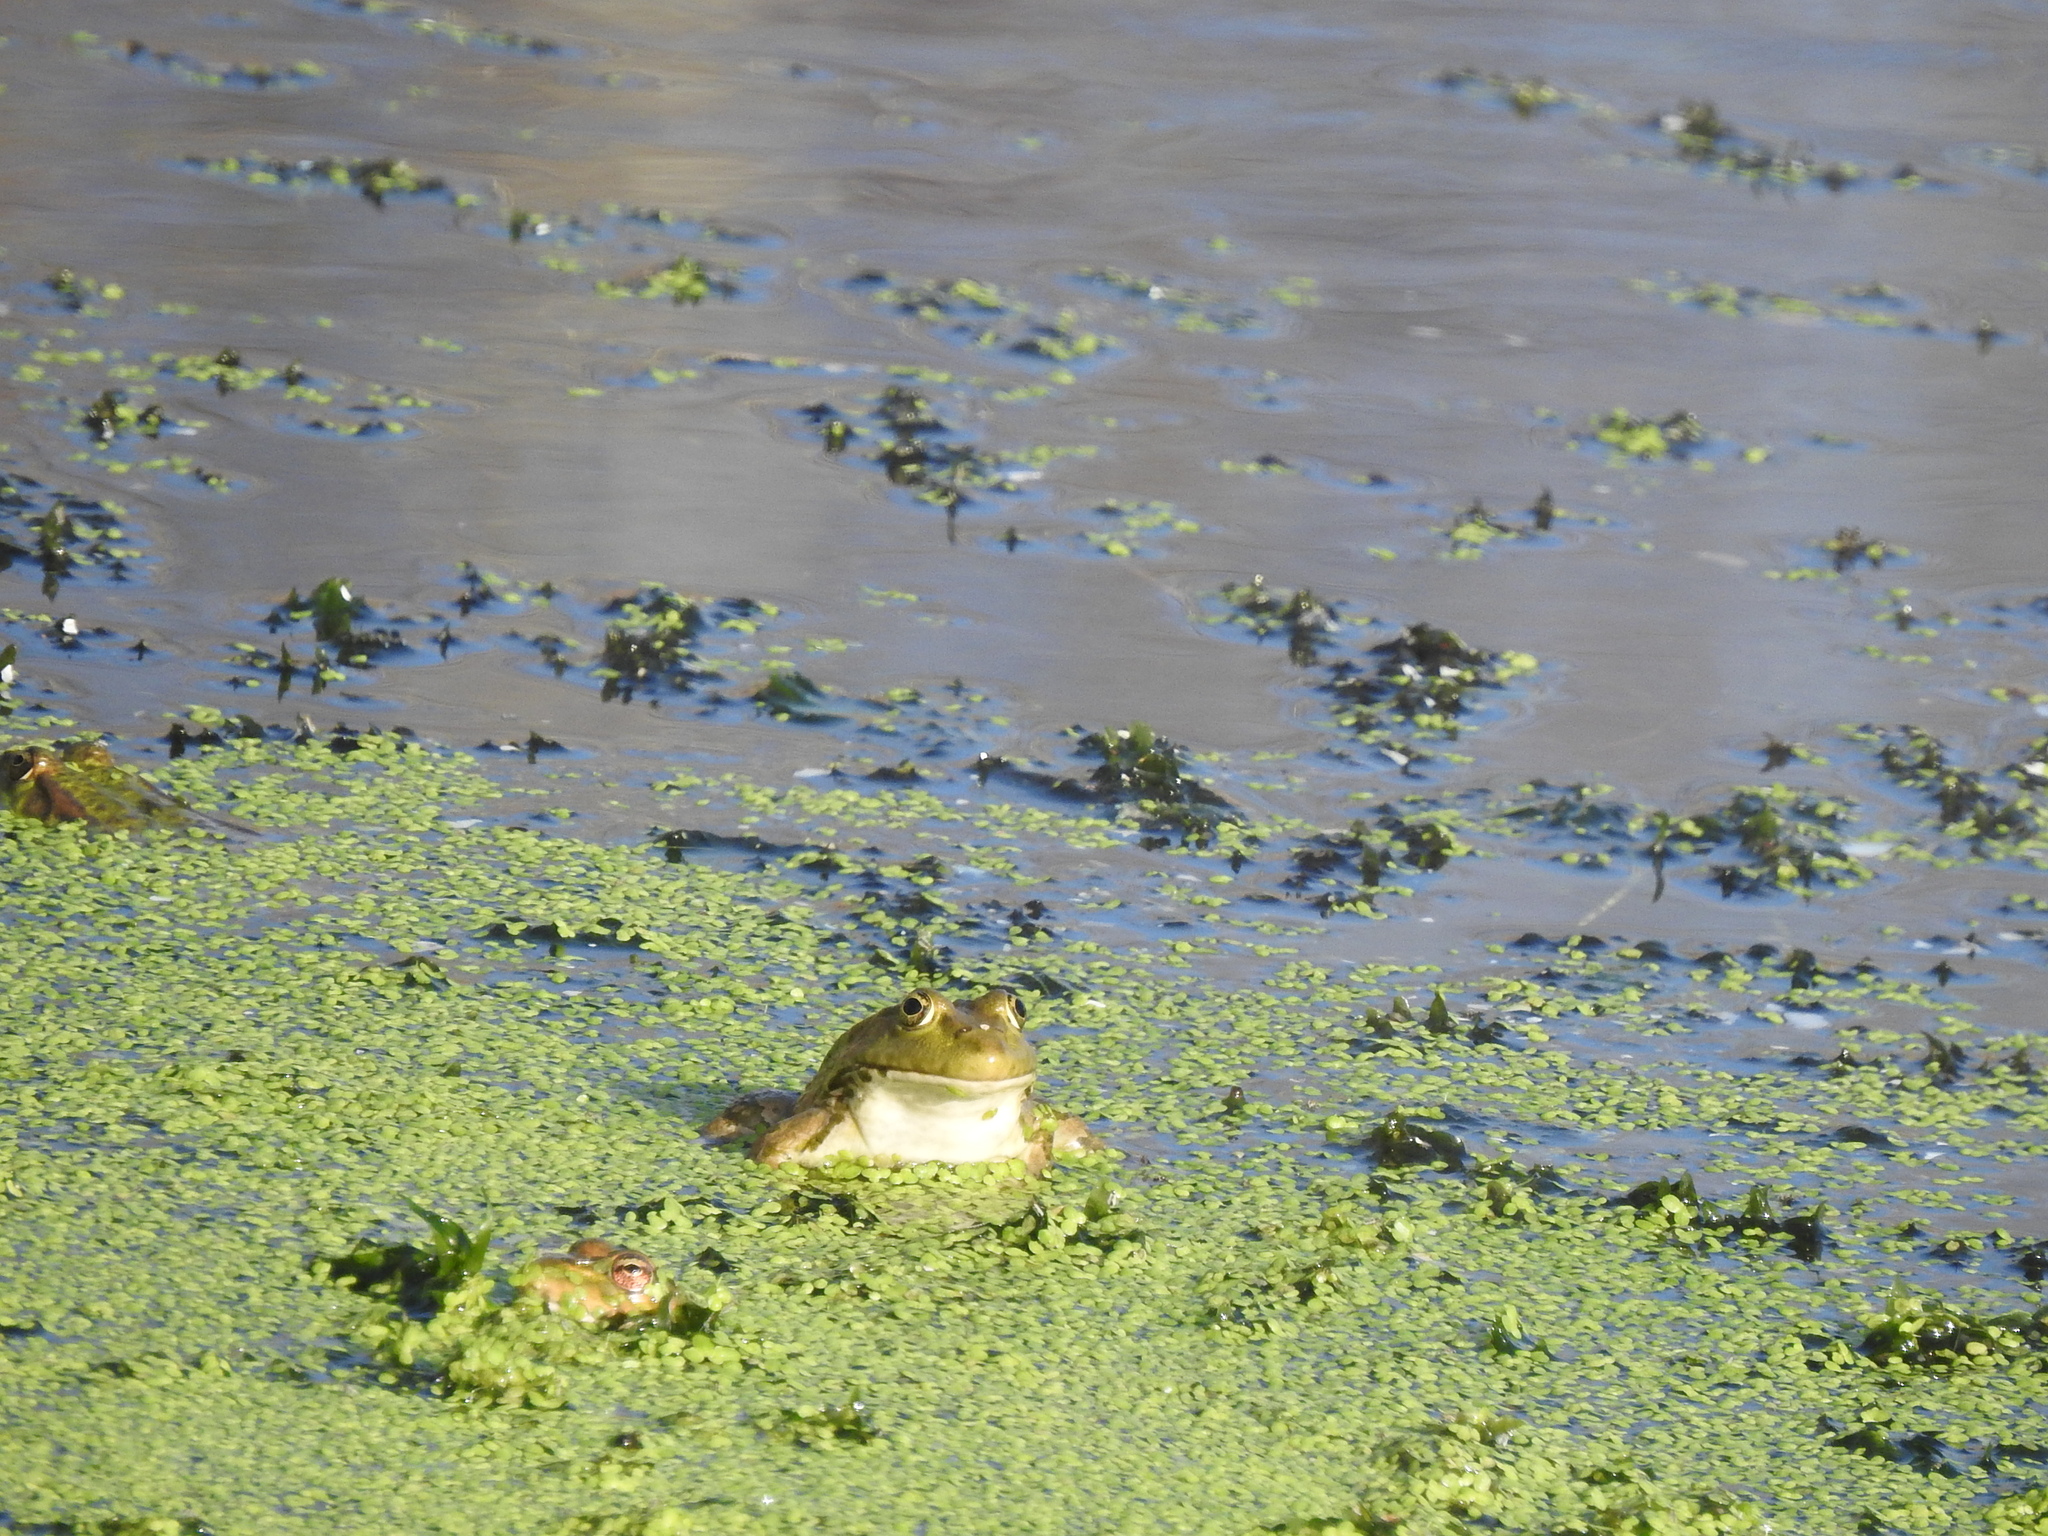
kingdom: Animalia
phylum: Chordata
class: Amphibia
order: Anura
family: Ranidae
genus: Pelophylax
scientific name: Pelophylax ridibundus
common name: Marsh frog
